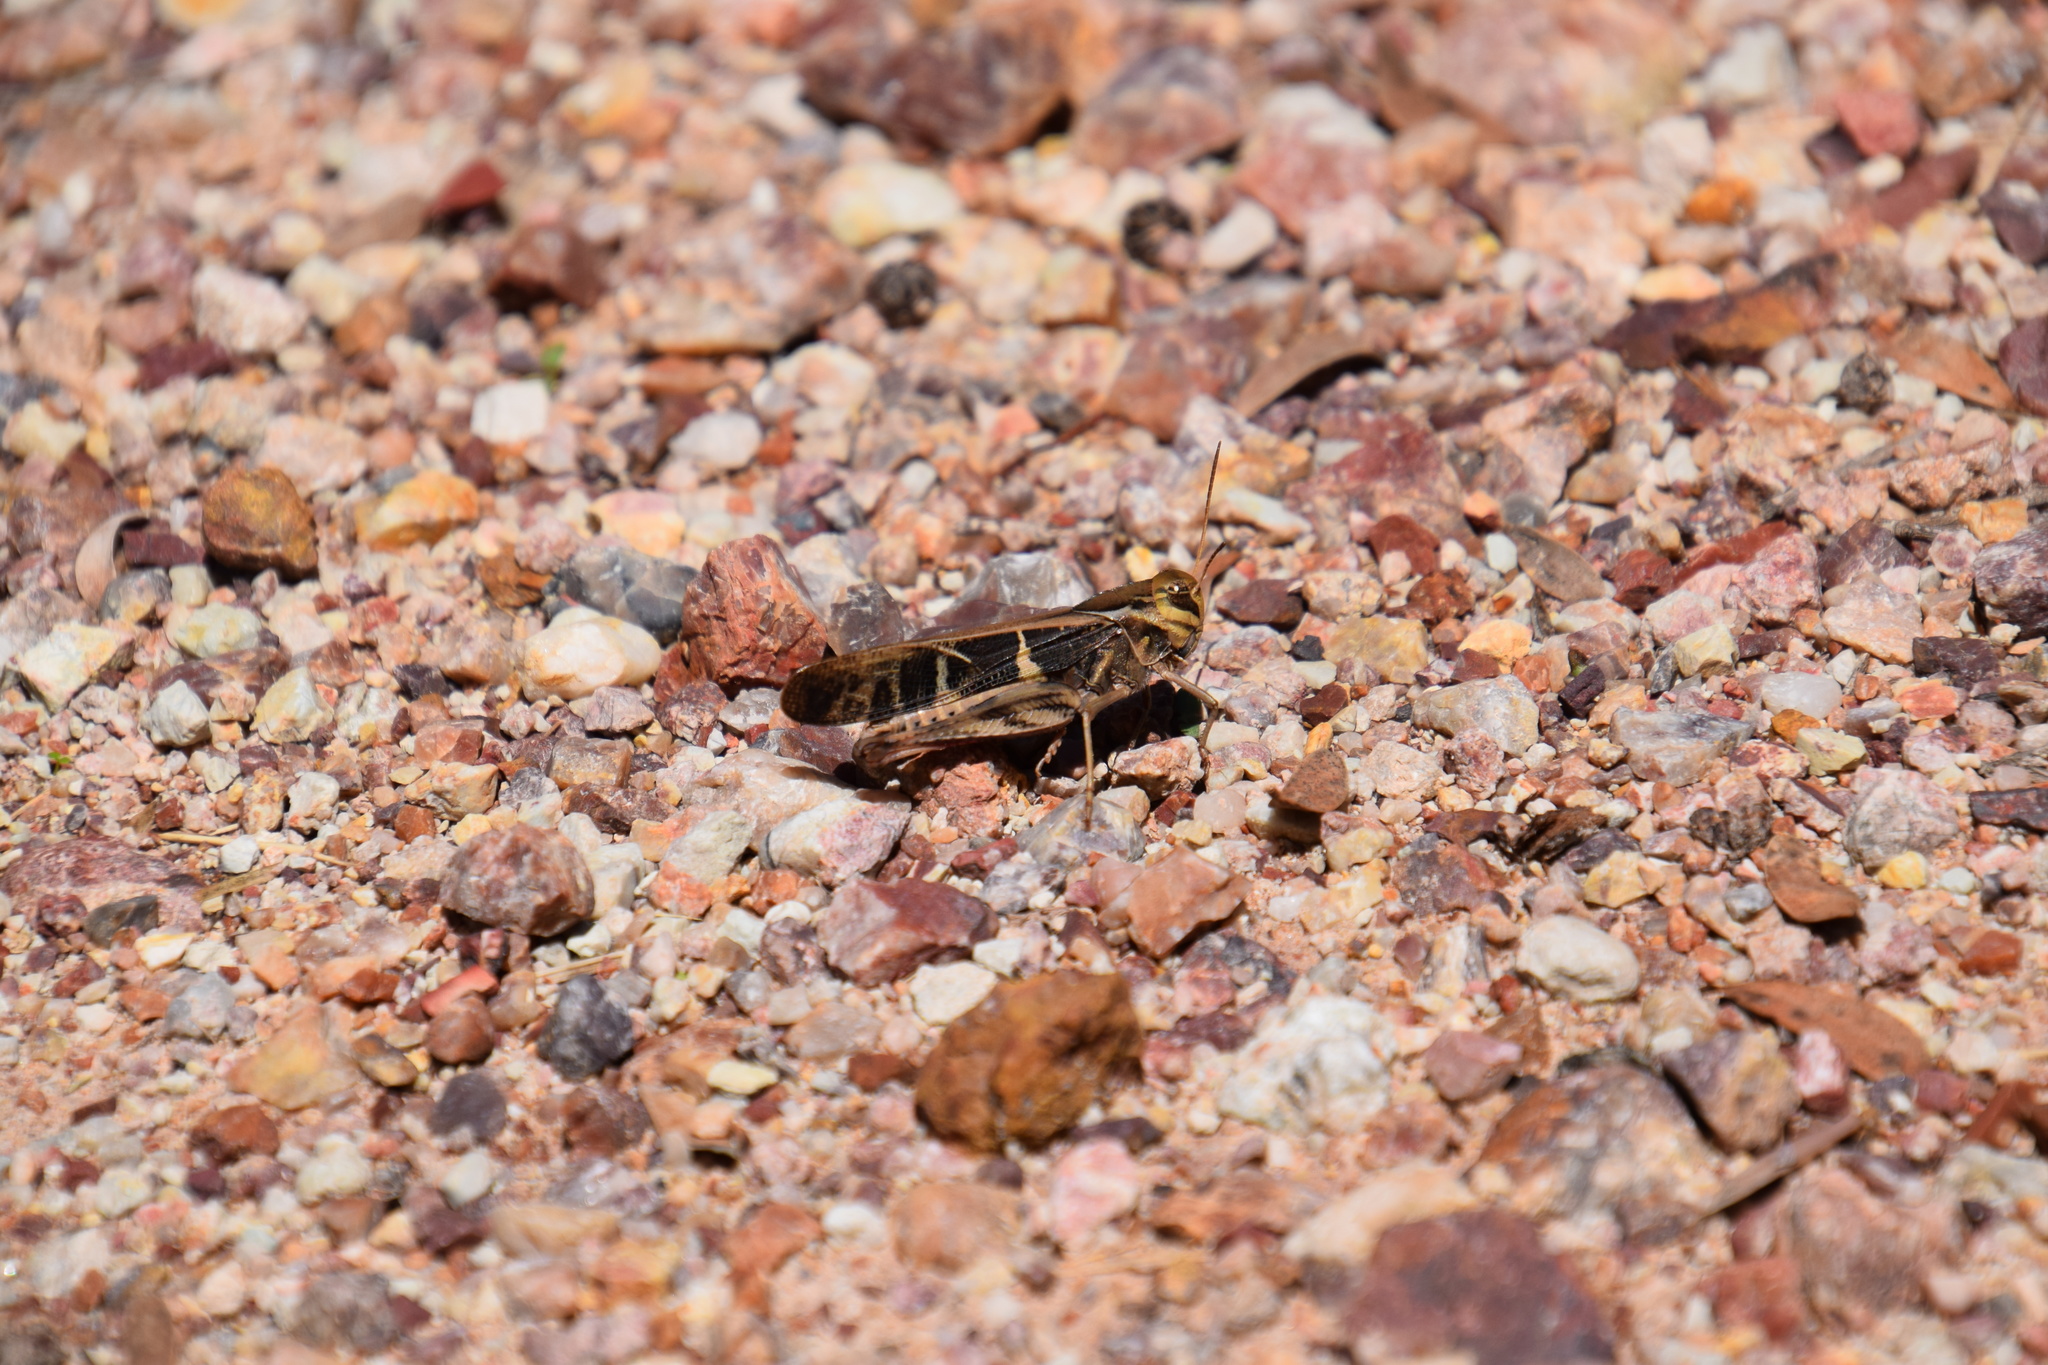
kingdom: Animalia
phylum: Arthropoda
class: Insecta
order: Orthoptera
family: Acrididae
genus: Gastrimargus
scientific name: Gastrimargus musicus
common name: Yellow-winged locust
